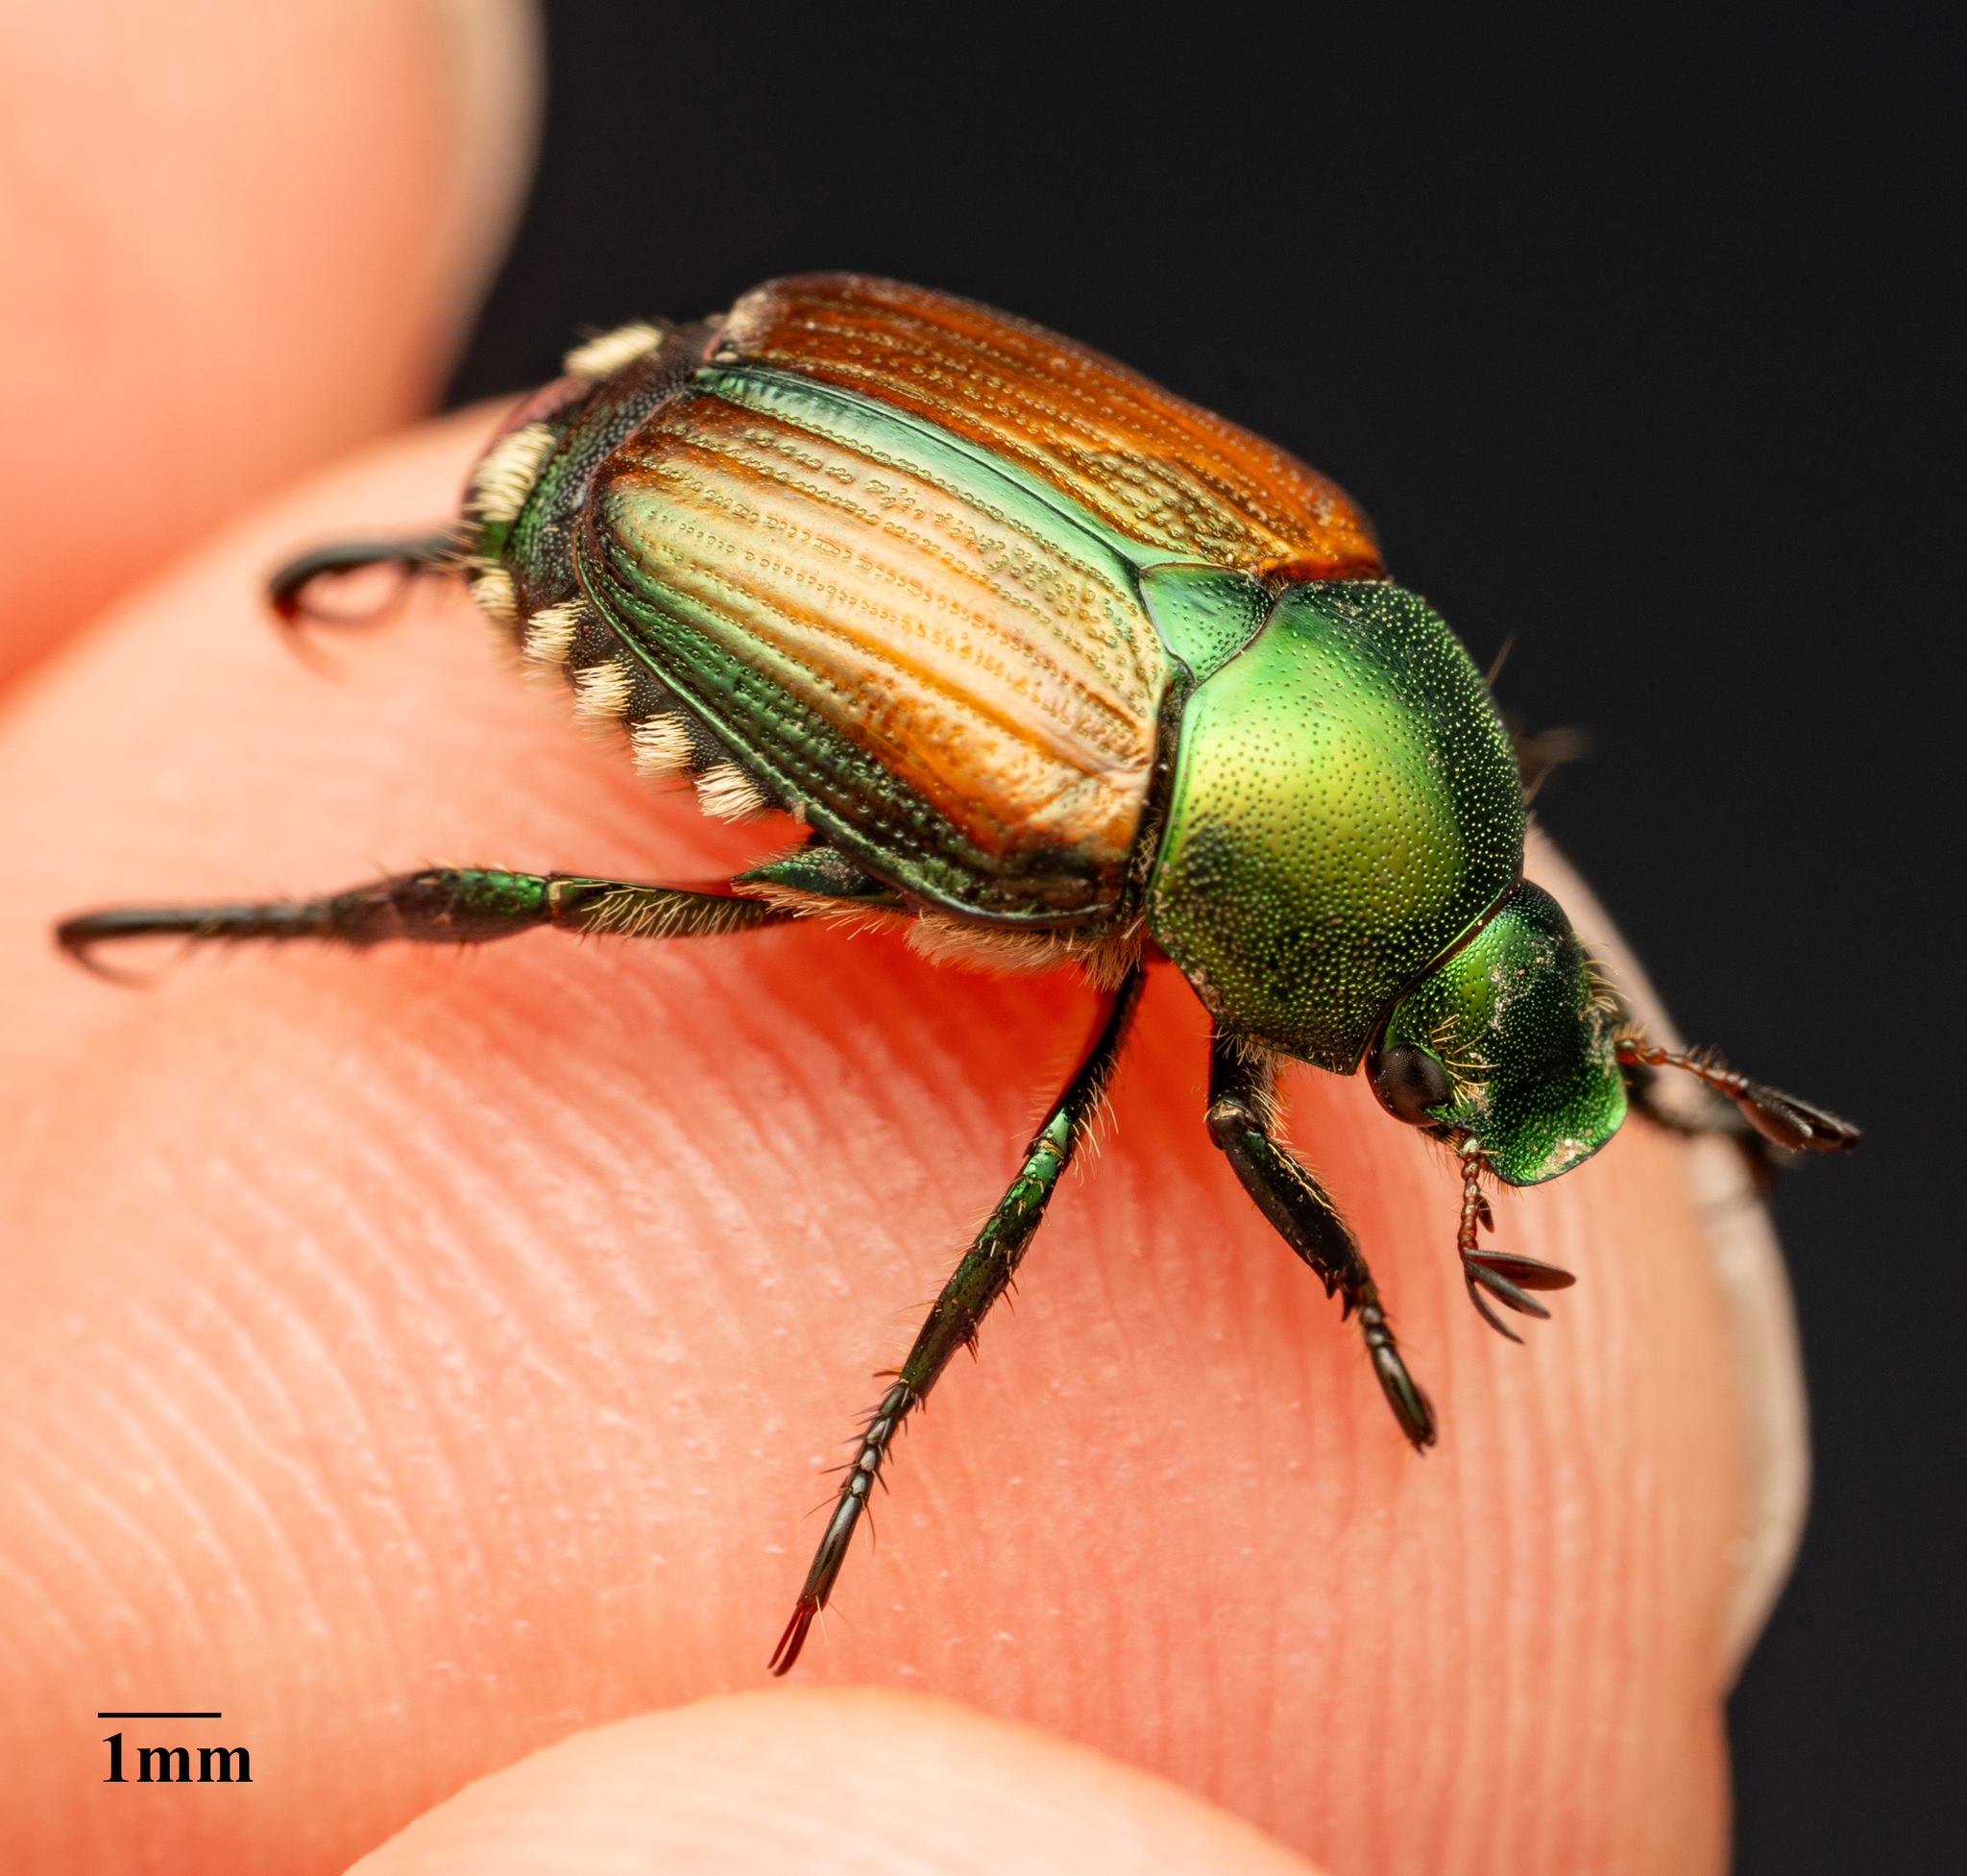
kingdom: Animalia
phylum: Arthropoda
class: Insecta
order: Coleoptera
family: Scarabaeidae
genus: Popillia
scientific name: Popillia japonica
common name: Japanese beetle
